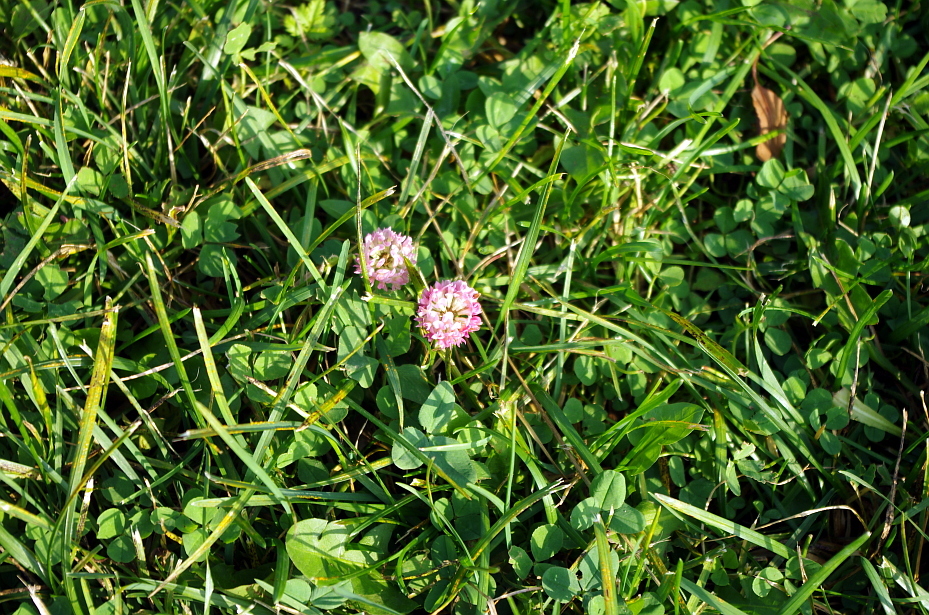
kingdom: Plantae
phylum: Tracheophyta
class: Magnoliopsida
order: Fabales
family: Fabaceae
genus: Trifolium
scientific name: Trifolium hybridum
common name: Alsike clover
